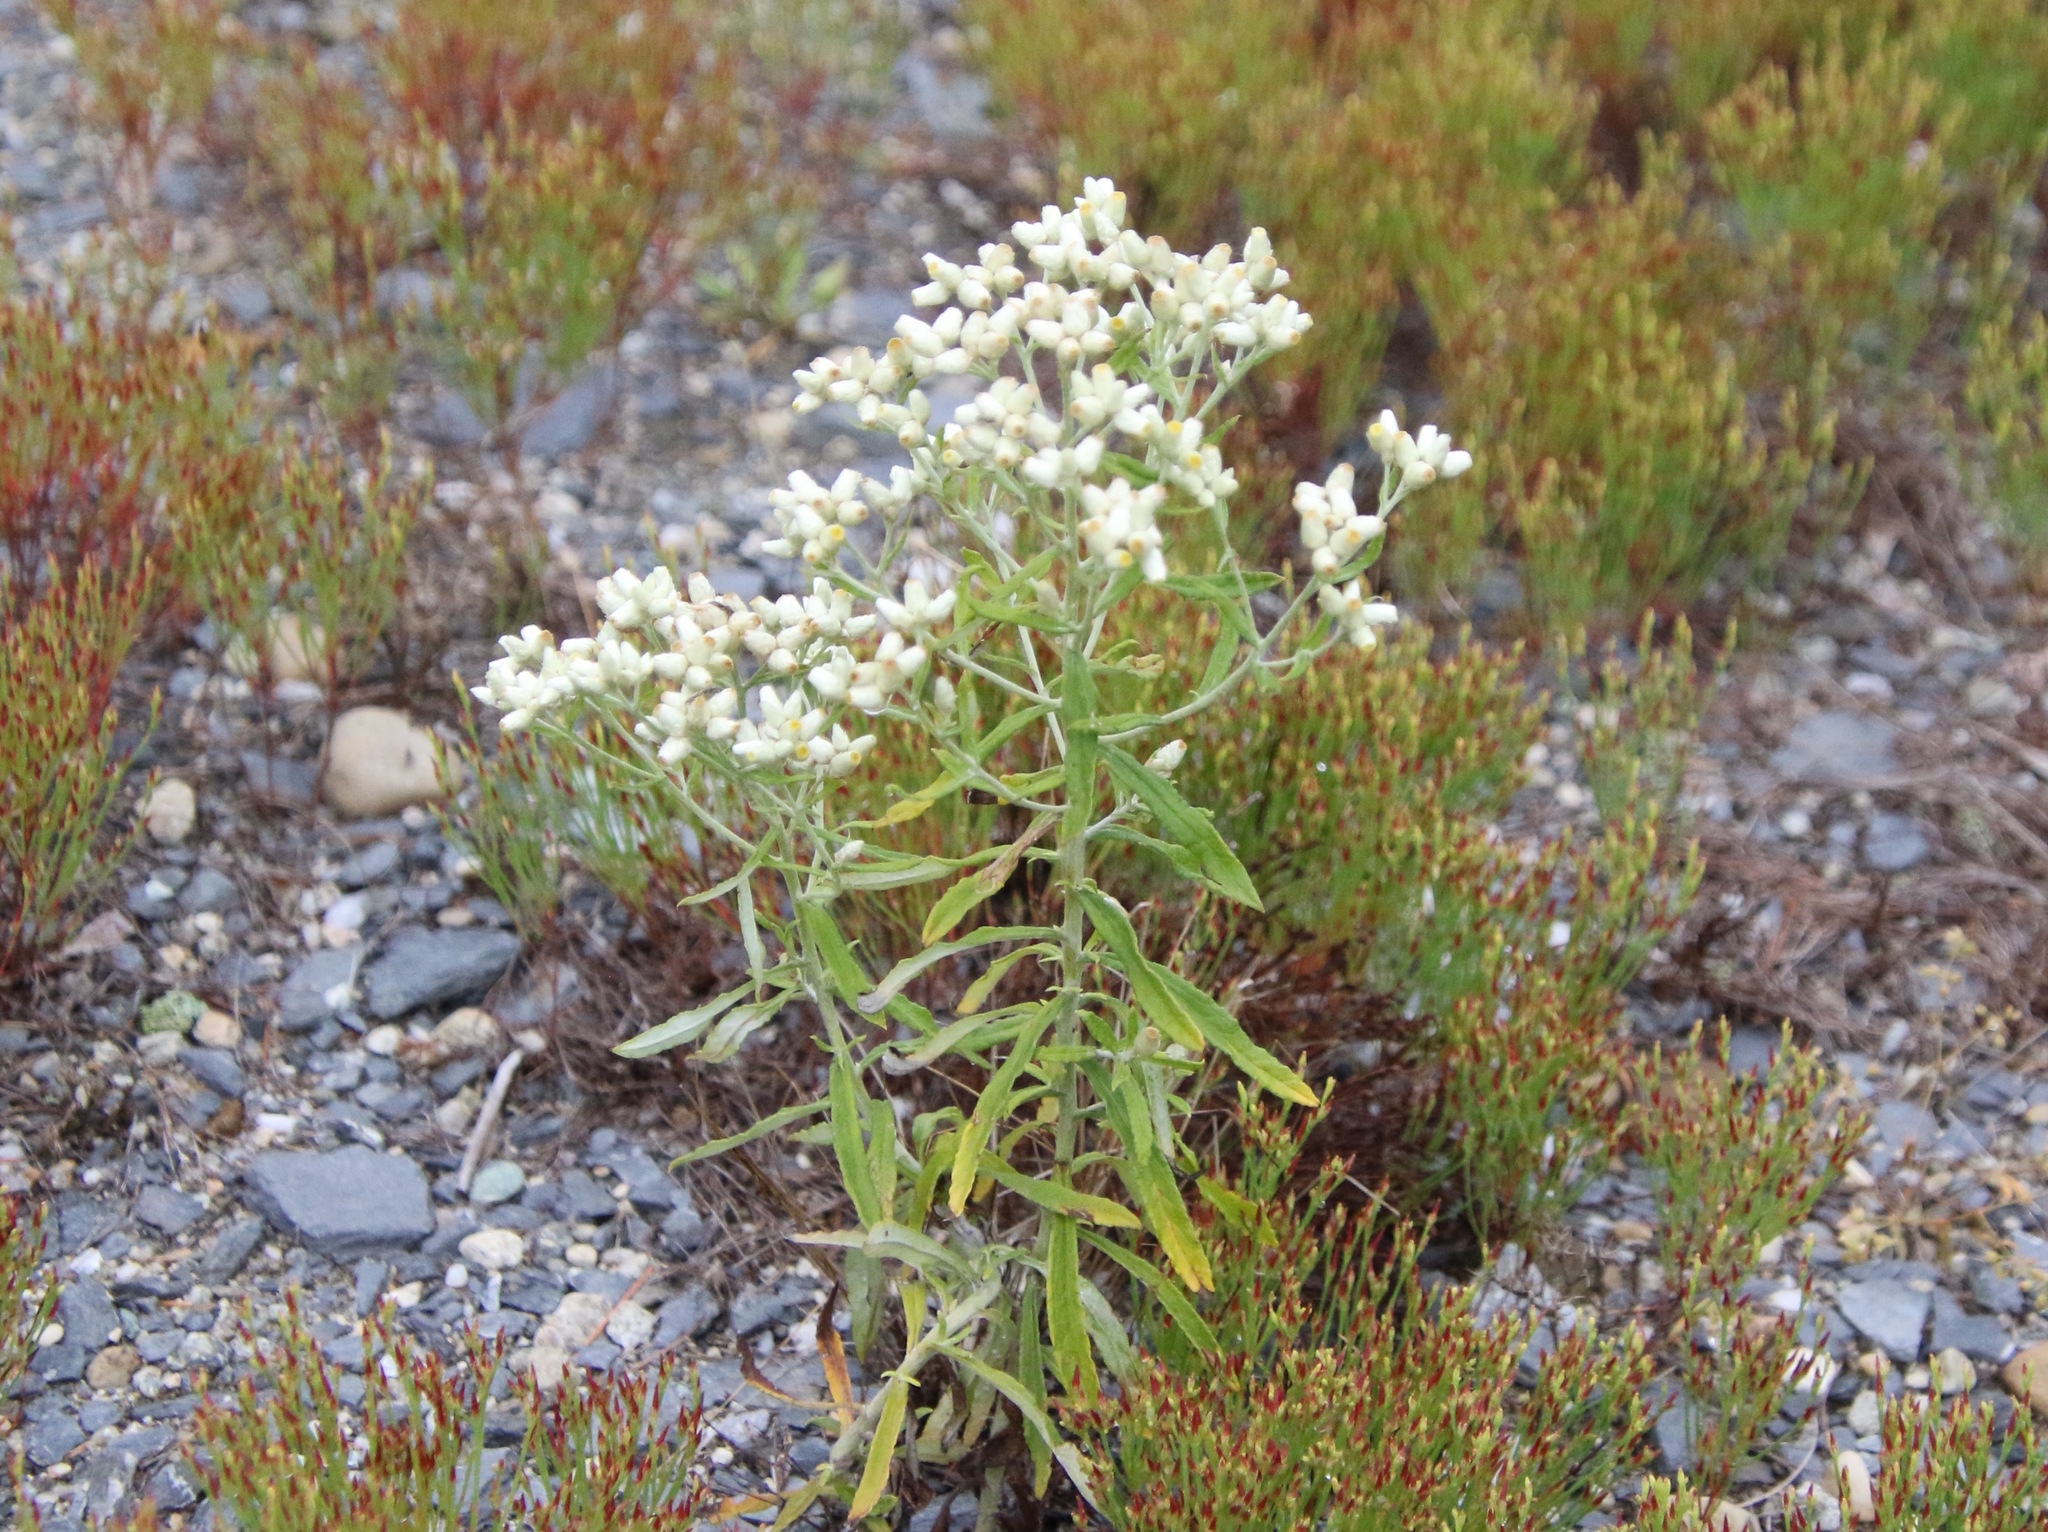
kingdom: Plantae
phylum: Tracheophyta
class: Magnoliopsida
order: Asterales
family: Asteraceae
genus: Pseudognaphalium
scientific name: Pseudognaphalium obtusifolium
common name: Eastern rabbit-tobacco
